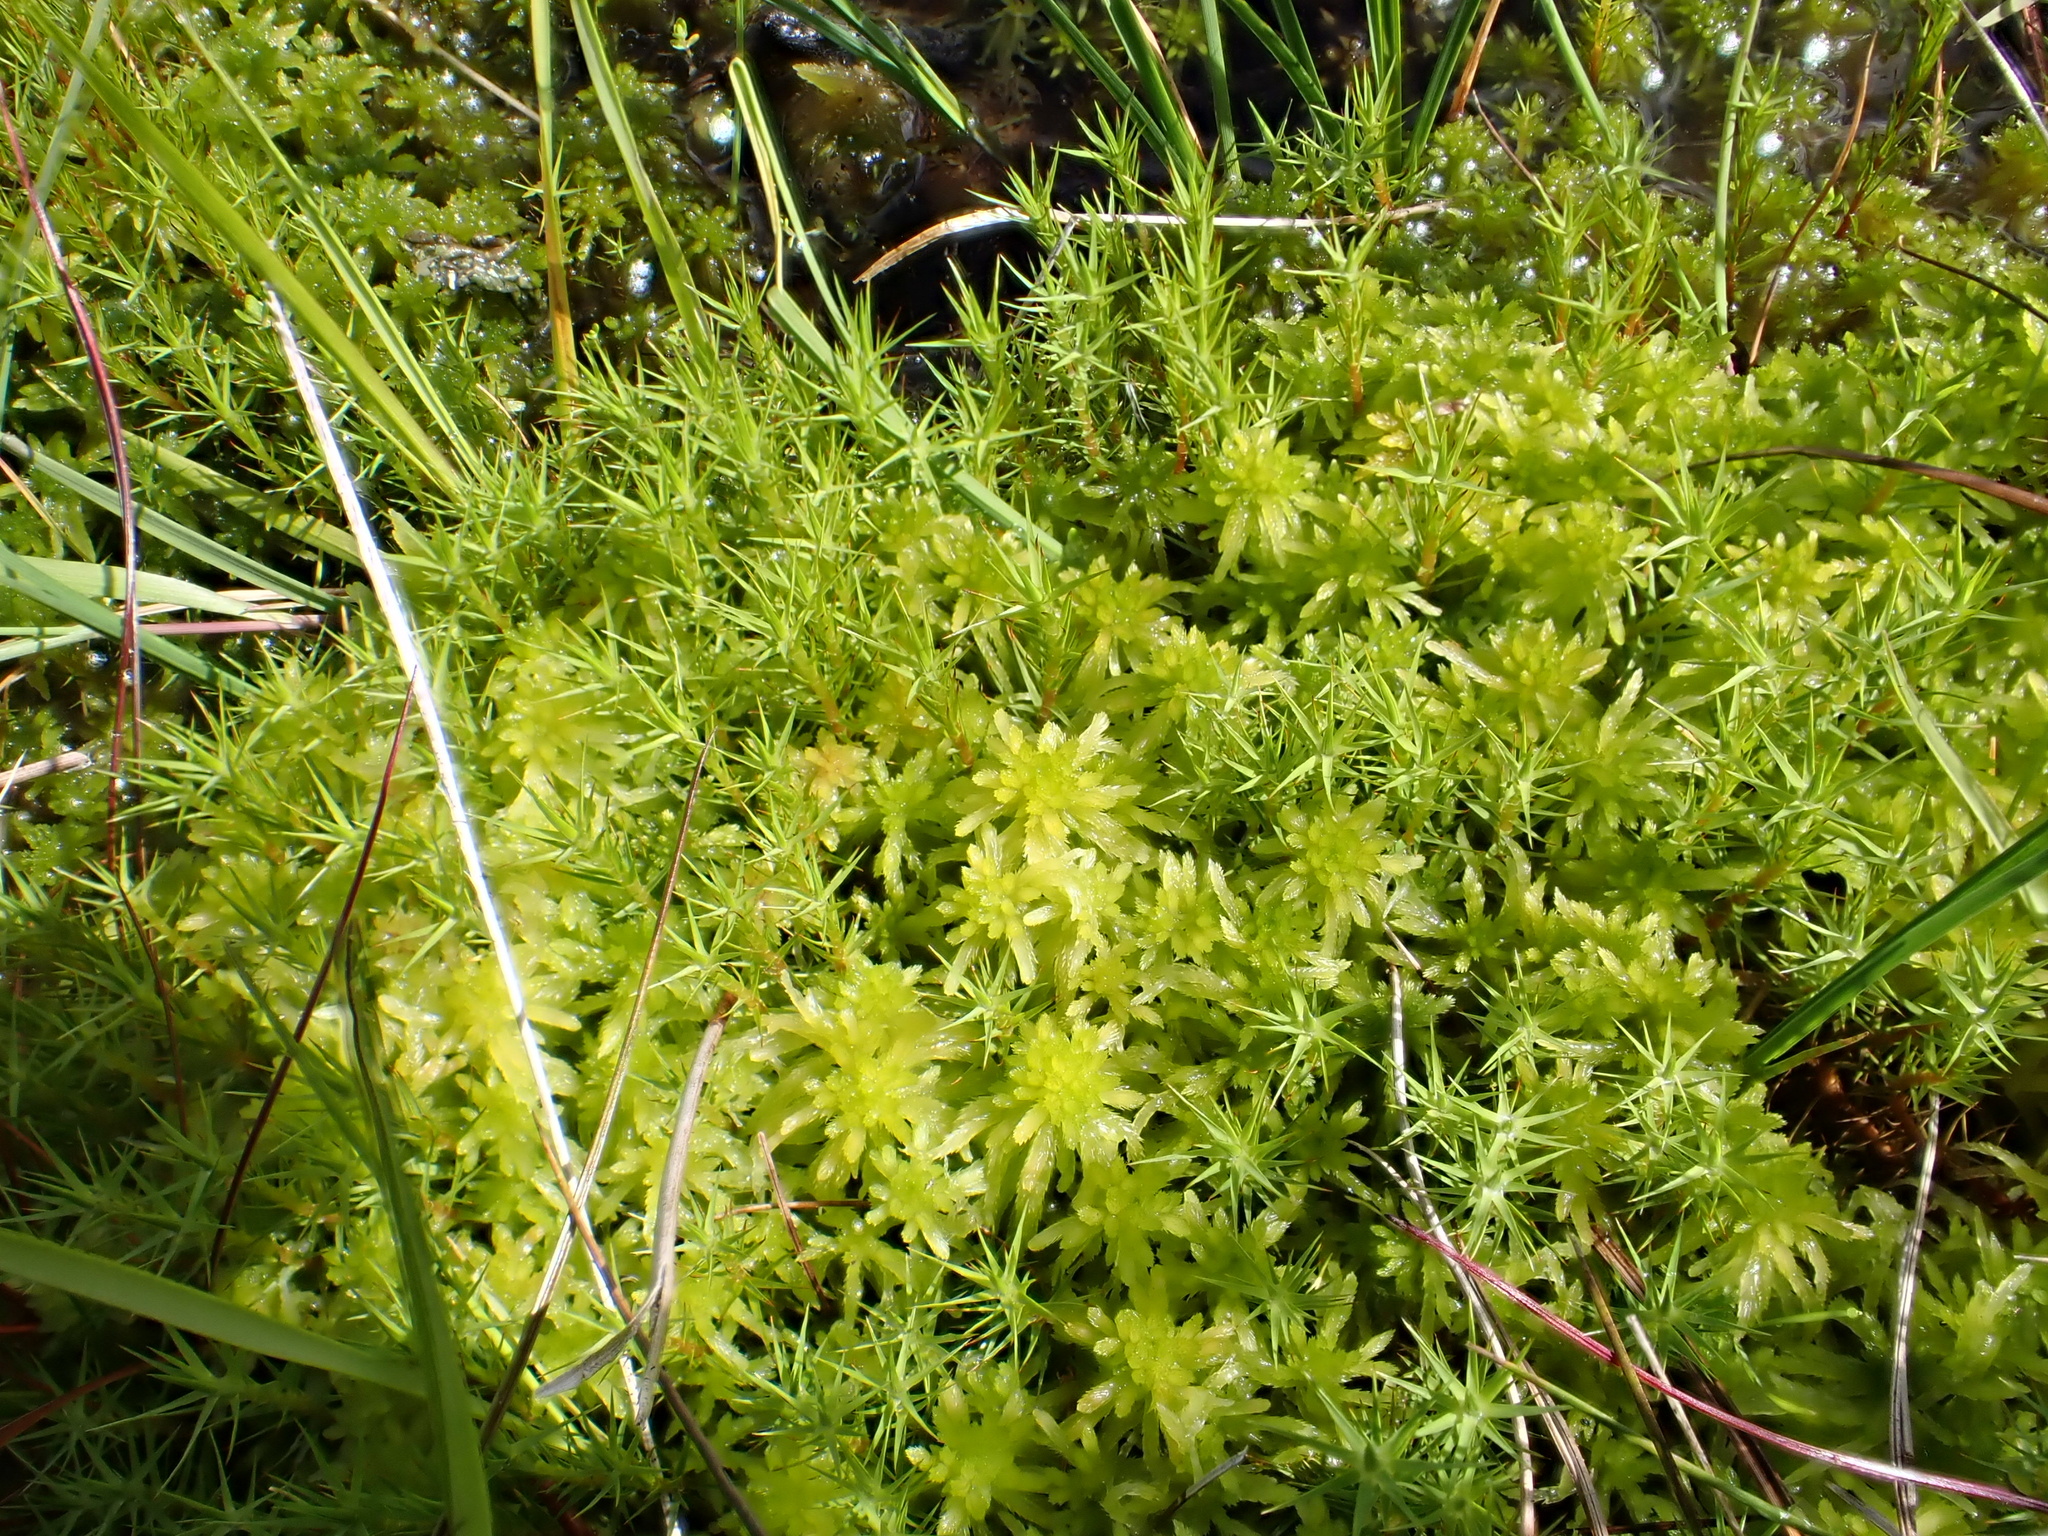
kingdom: Plantae
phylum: Bryophyta
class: Polytrichopsida
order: Polytrichales
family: Polytrichaceae
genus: Polytrichum
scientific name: Polytrichum strictum
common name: Bog haircap moss
